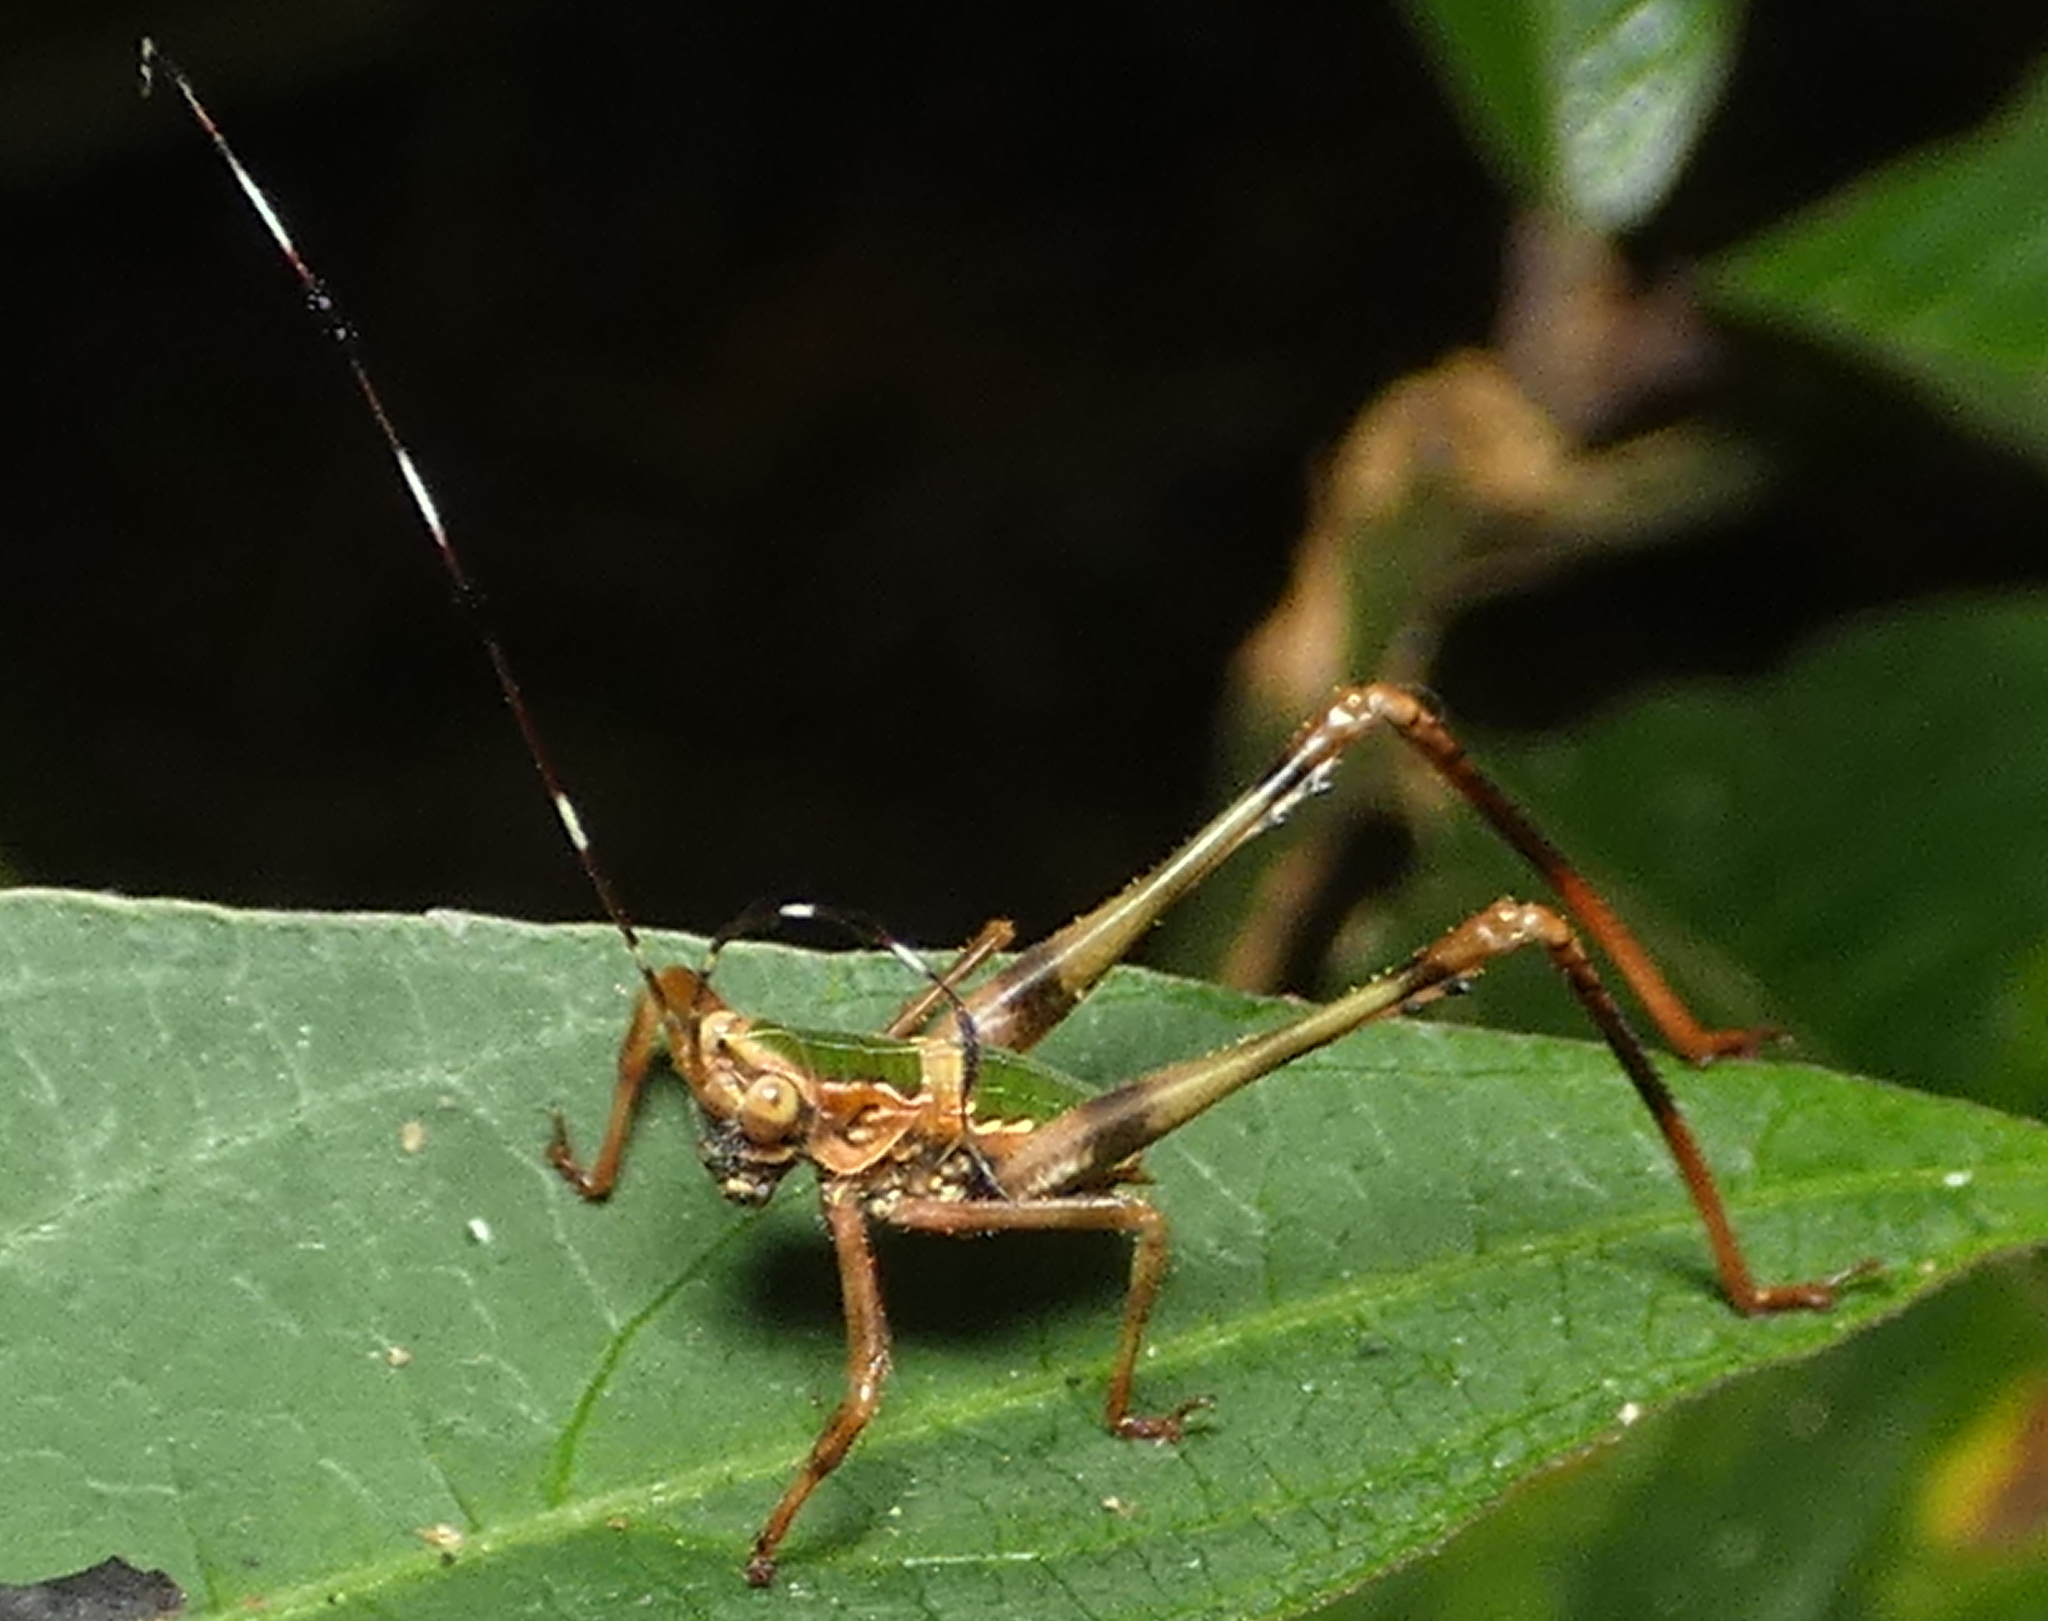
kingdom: Animalia
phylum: Arthropoda
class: Insecta
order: Orthoptera
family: Tettigoniidae
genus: Vellea
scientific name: Vellea cruenta
